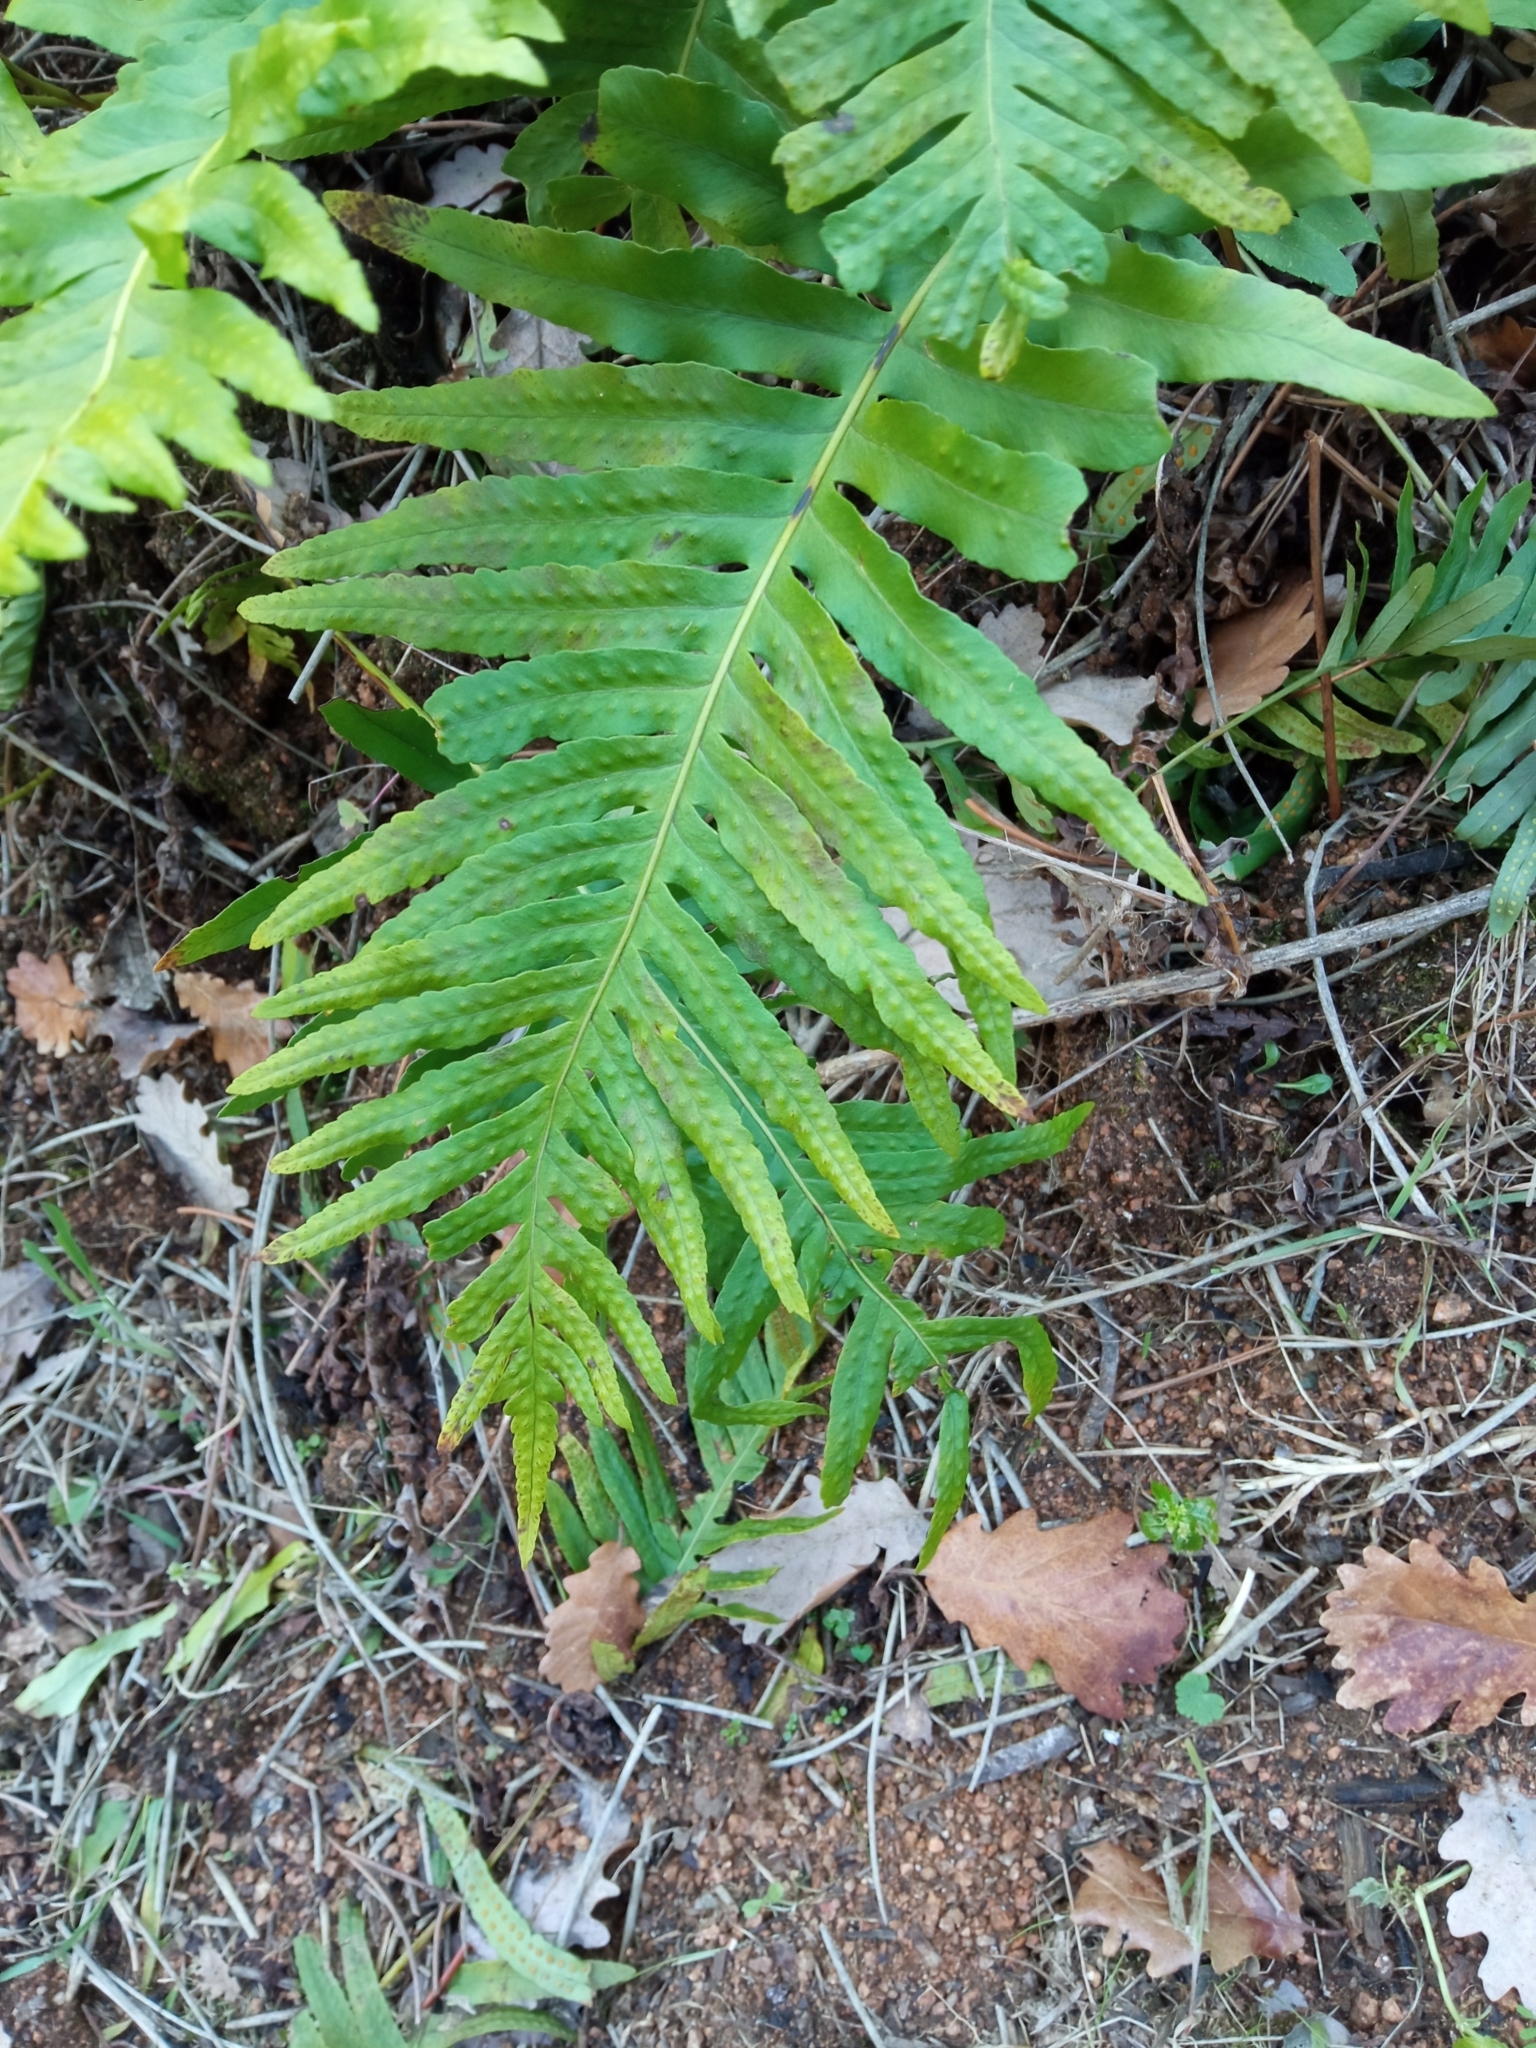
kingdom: Plantae
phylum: Tracheophyta
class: Polypodiopsida
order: Polypodiales
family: Polypodiaceae
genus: Polypodium
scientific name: Polypodium cambricum
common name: Southern polypody
